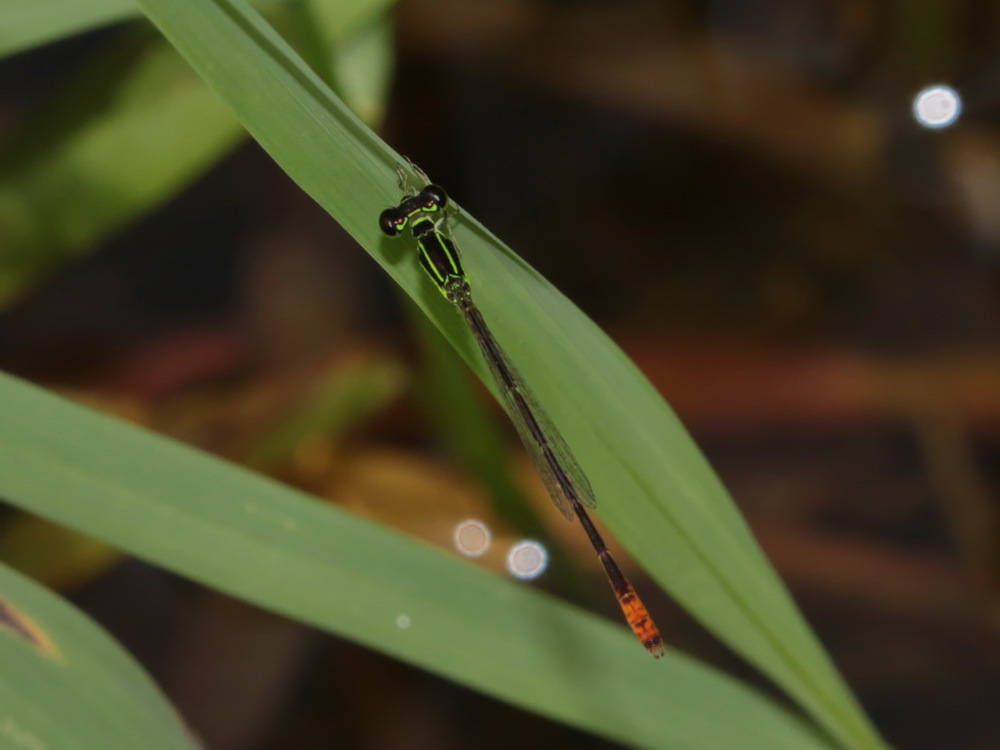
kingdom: Animalia
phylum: Arthropoda
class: Insecta
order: Odonata
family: Coenagrionidae
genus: Agriocnemis
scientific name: Agriocnemis minima
